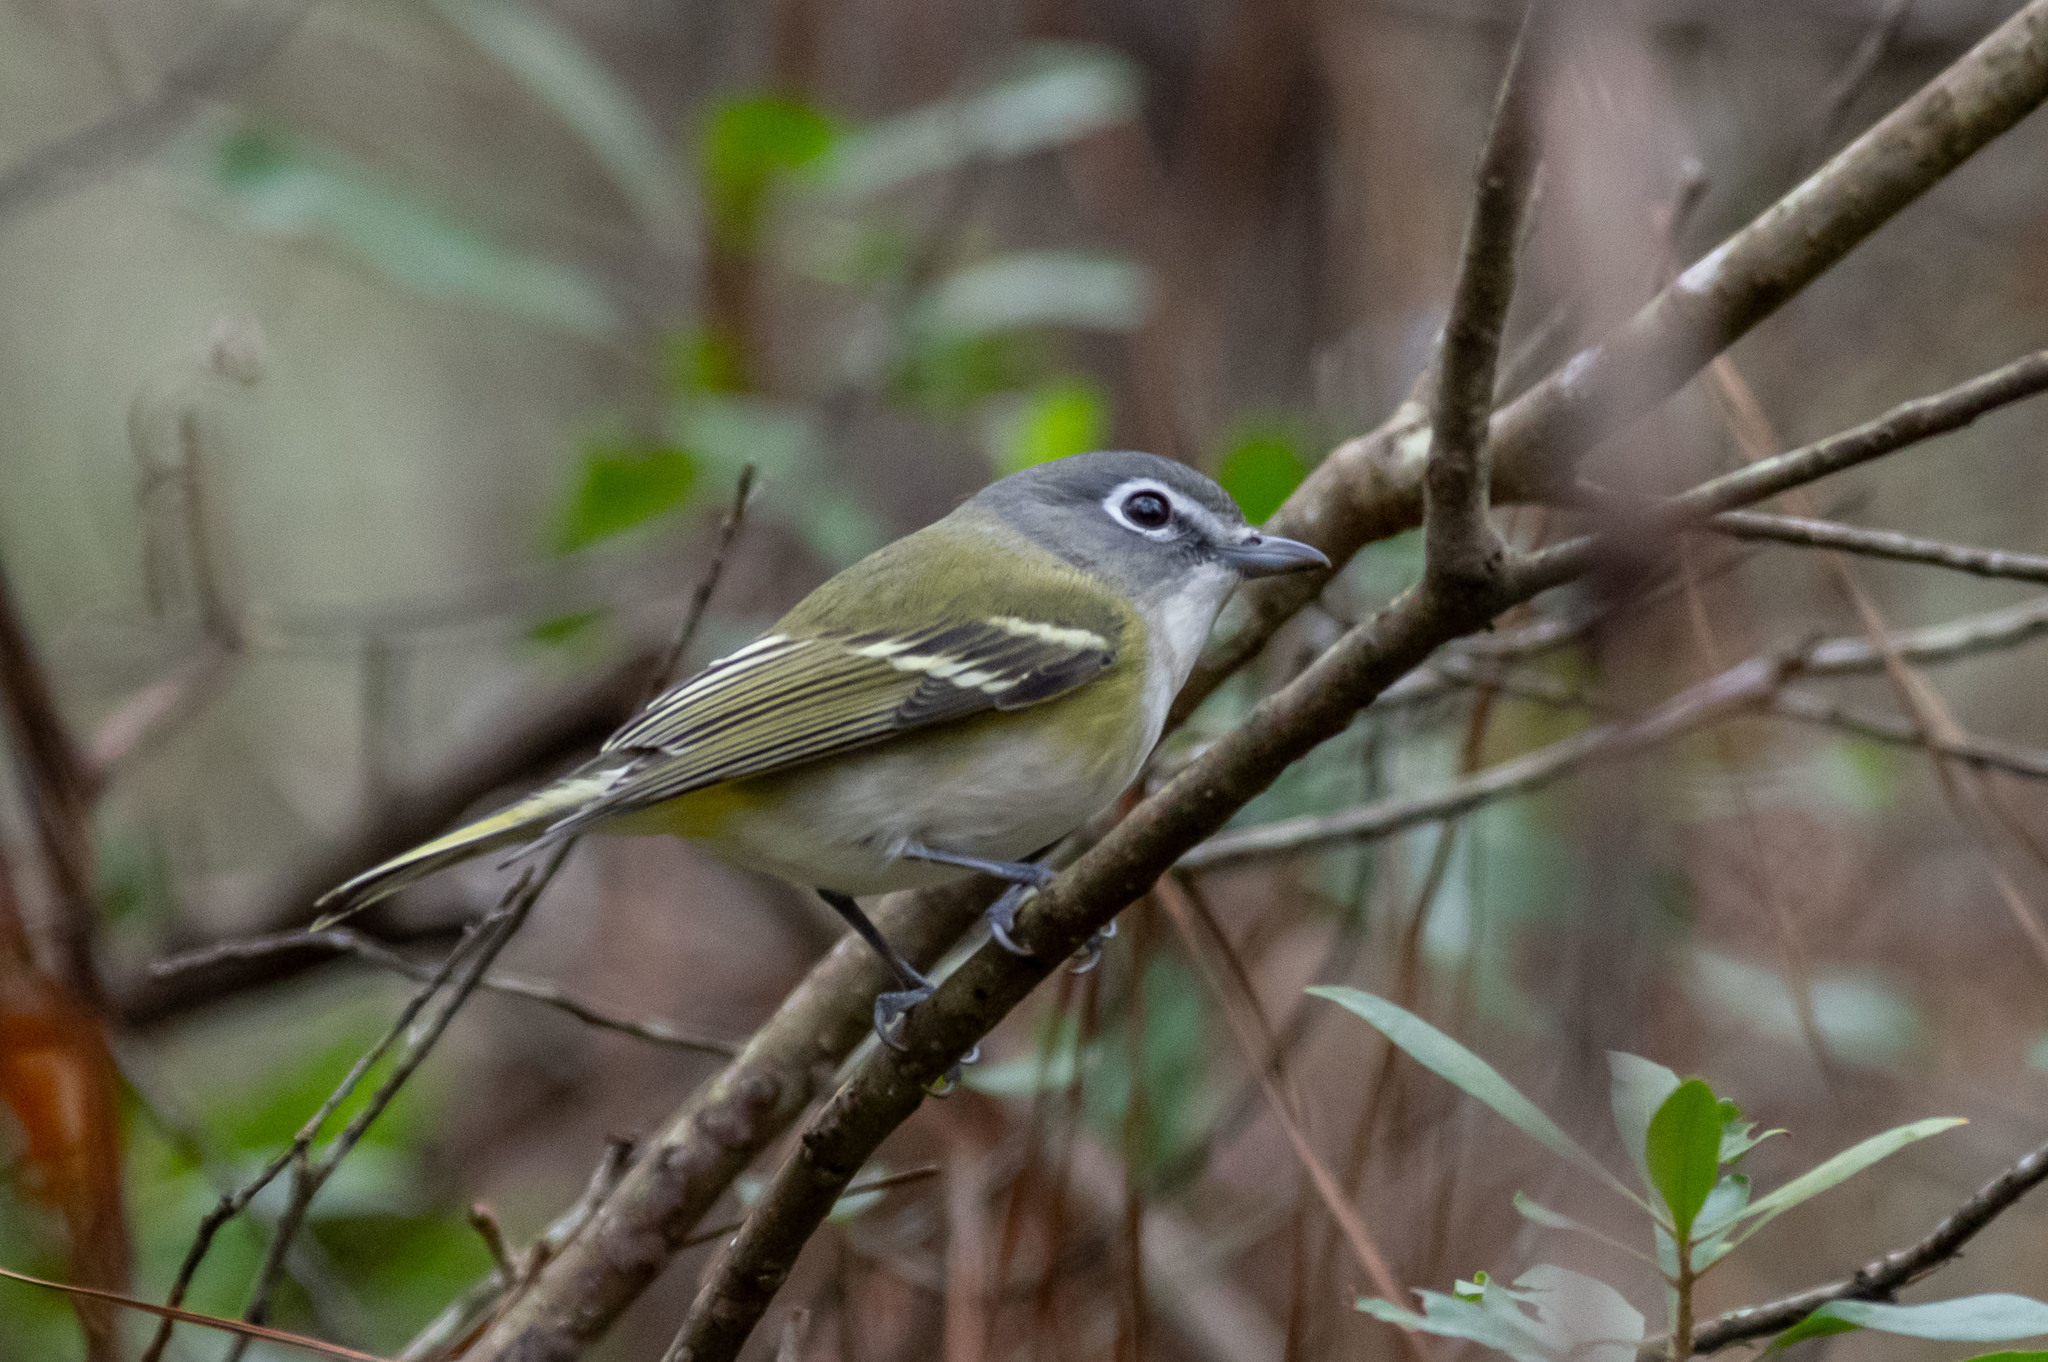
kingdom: Animalia
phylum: Chordata
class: Aves
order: Passeriformes
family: Vireonidae
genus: Vireo
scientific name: Vireo solitarius
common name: Blue-headed vireo
